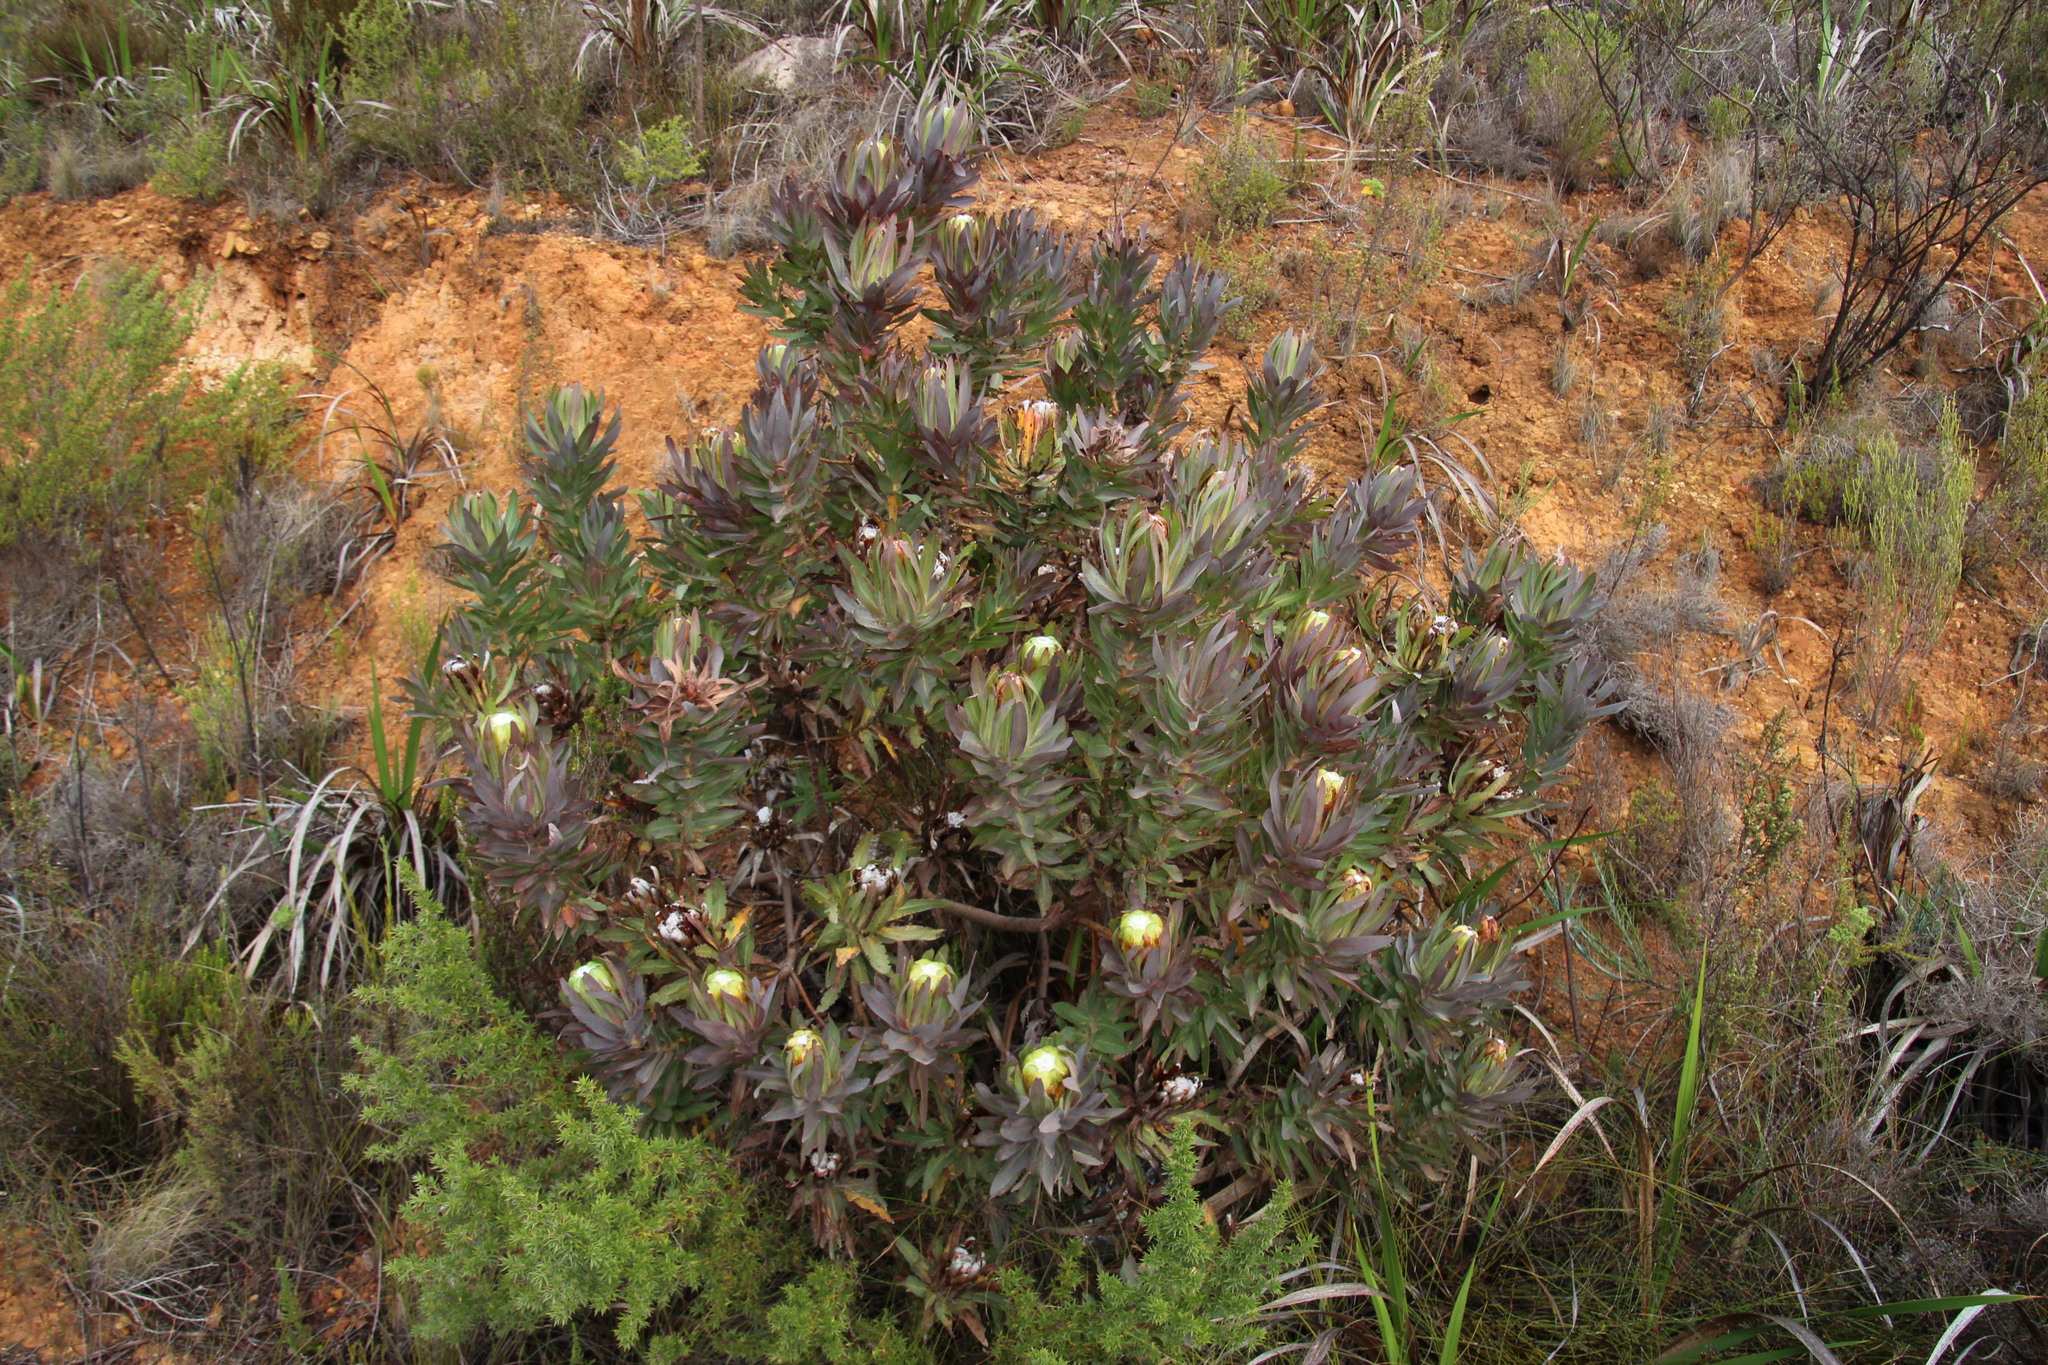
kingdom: Plantae
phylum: Tracheophyta
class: Magnoliopsida
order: Proteales
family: Proteaceae
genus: Protea
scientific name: Protea coronata
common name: Green sugarbush
